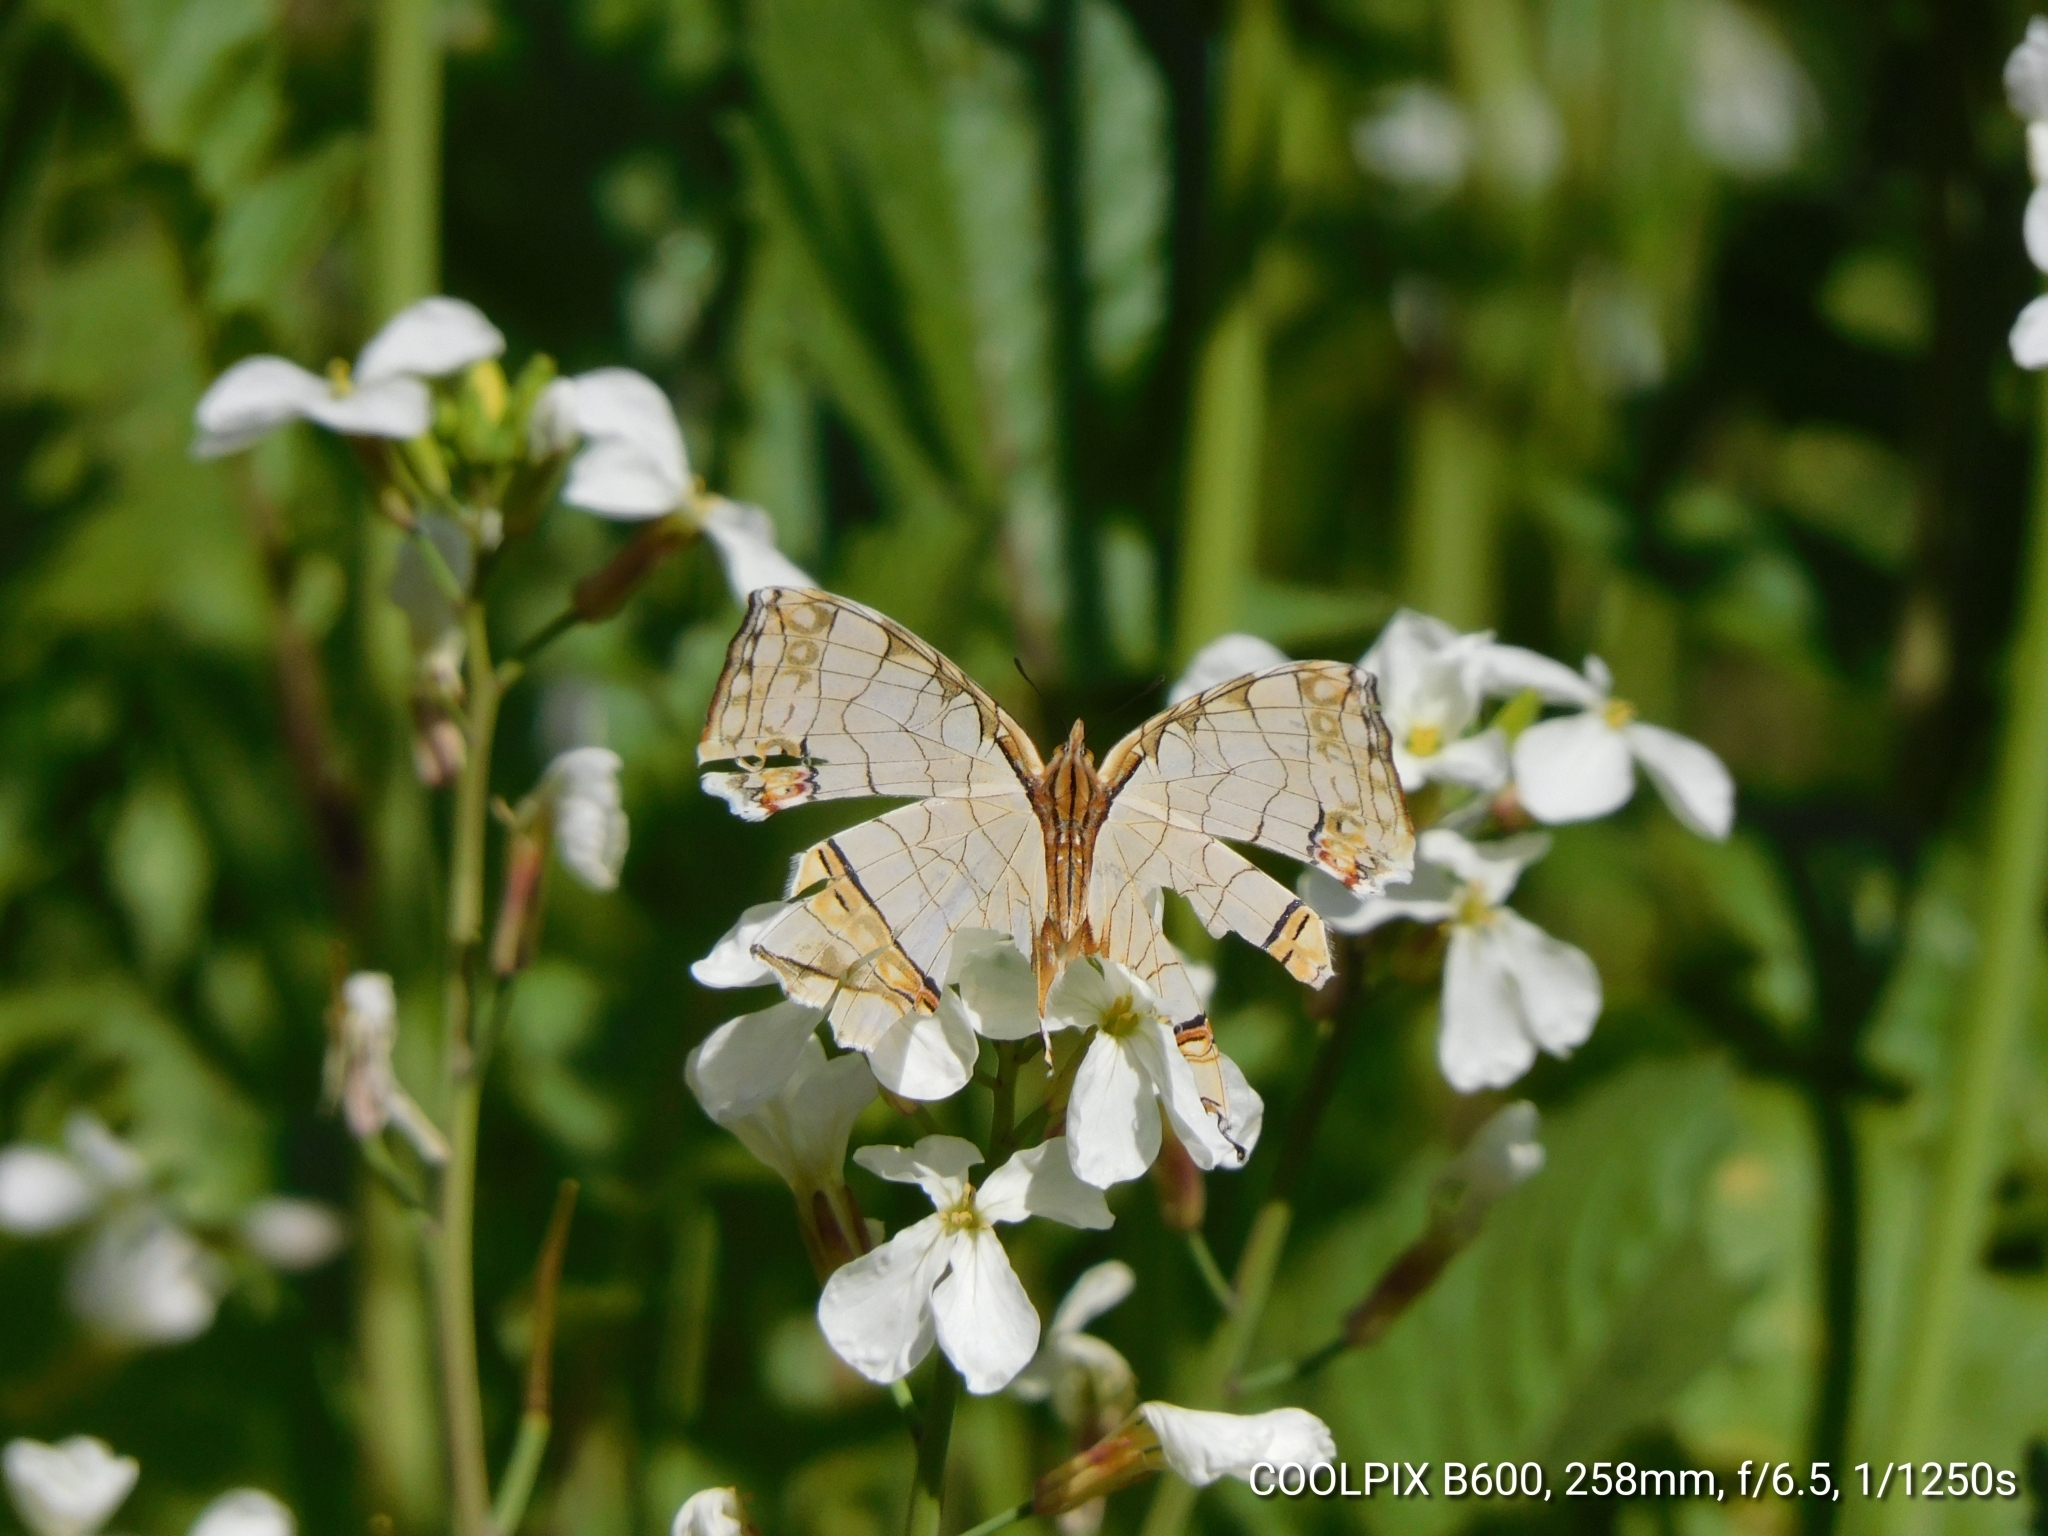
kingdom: Animalia
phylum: Arthropoda
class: Insecta
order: Lepidoptera
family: Nymphalidae
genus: Cyrestis
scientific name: Cyrestis thyodamas
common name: Common mapwing
